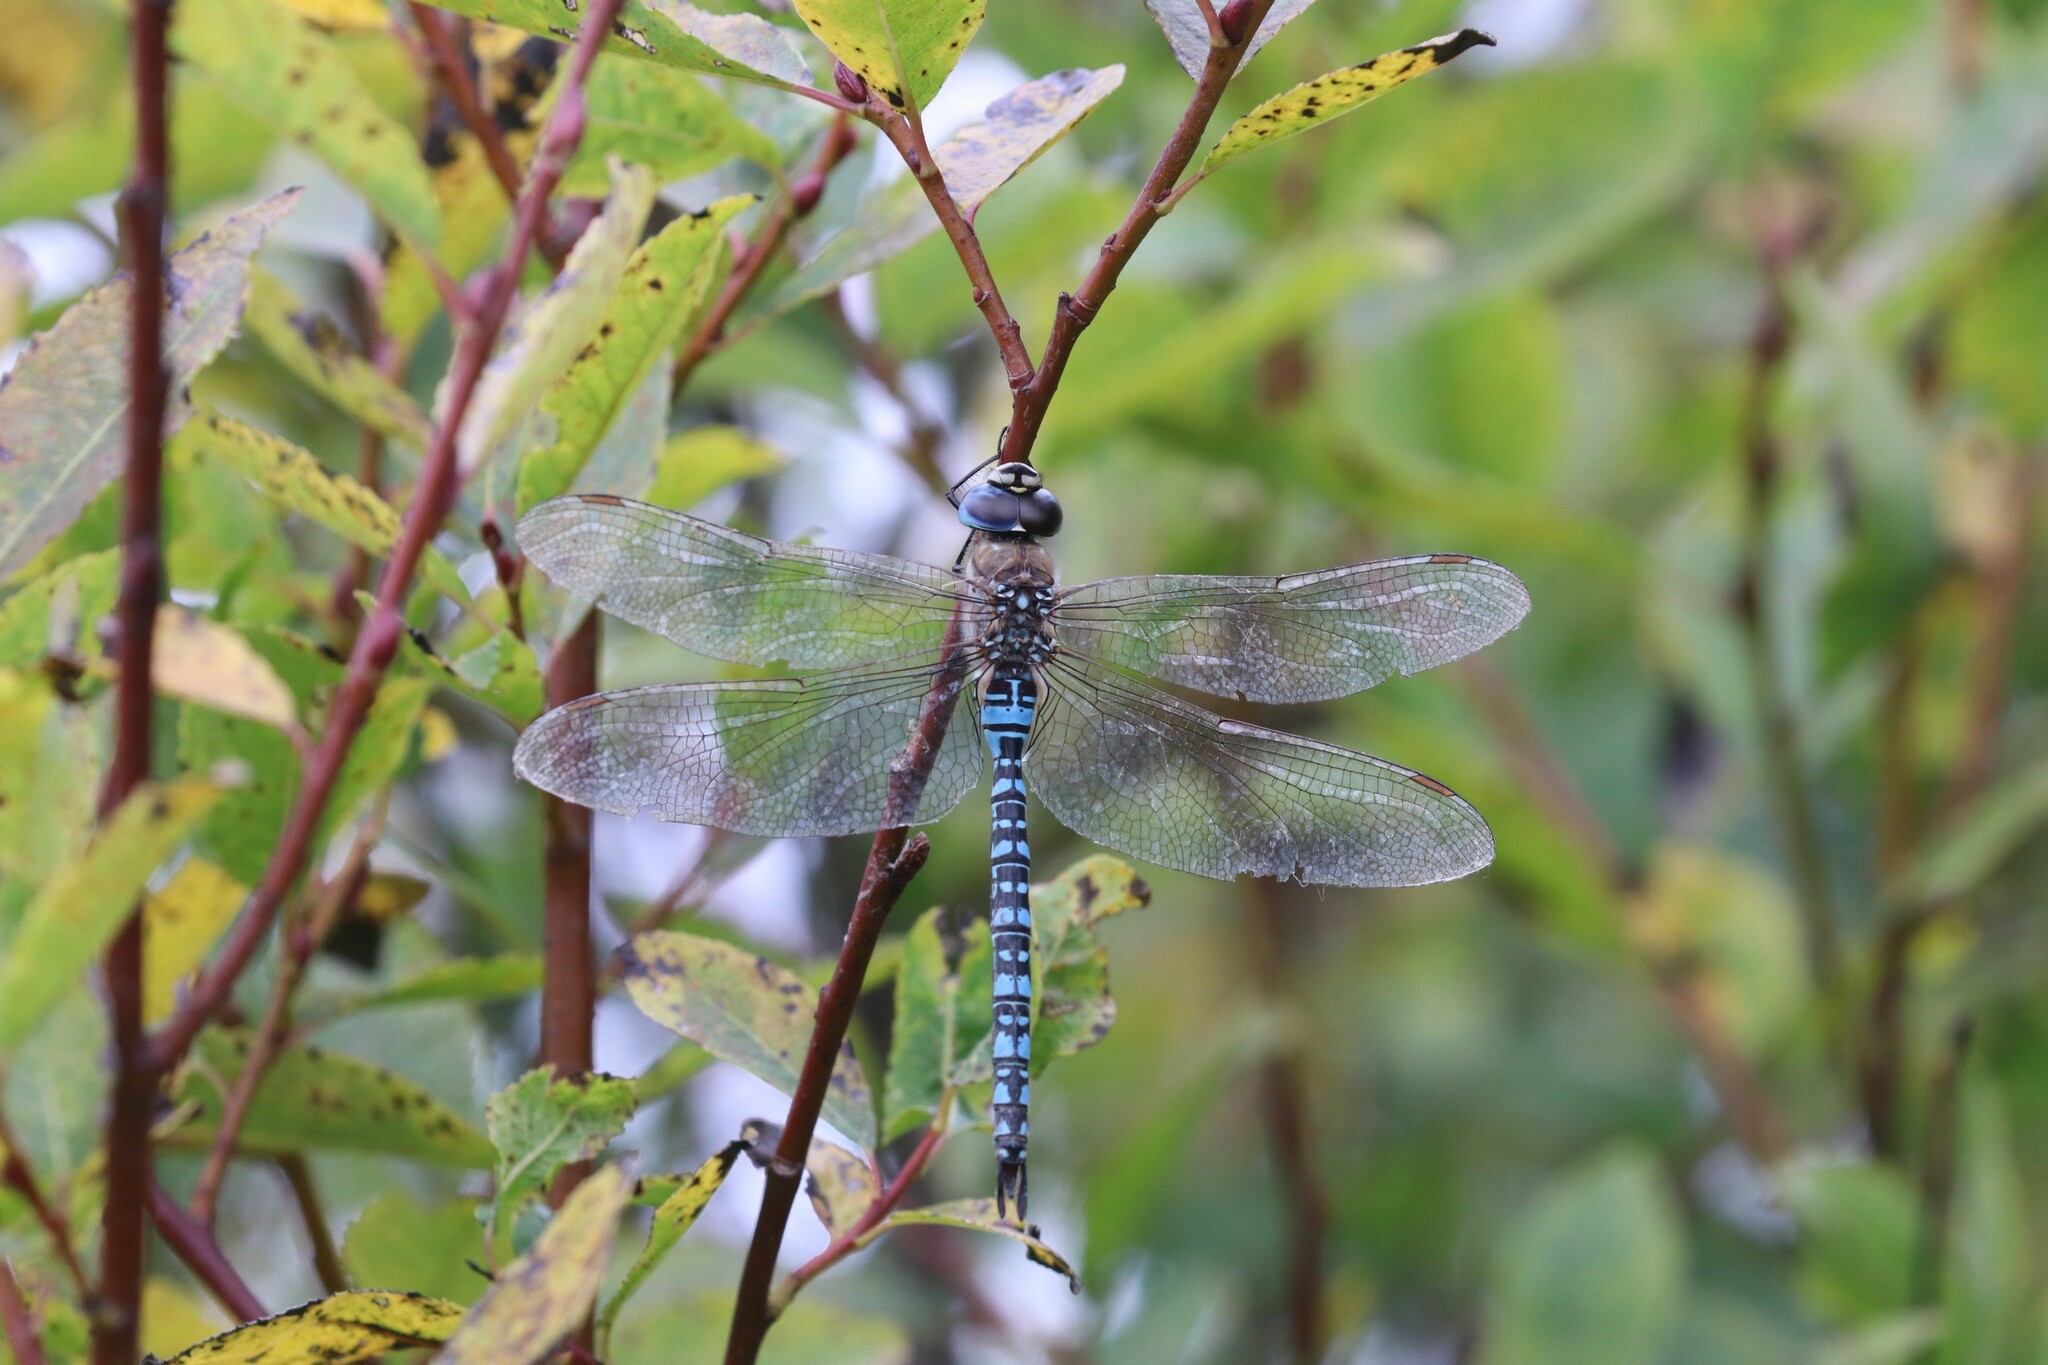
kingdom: Animalia
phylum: Arthropoda
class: Insecta
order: Odonata
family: Aeshnidae
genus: Aeshna
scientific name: Aeshna soneharai
